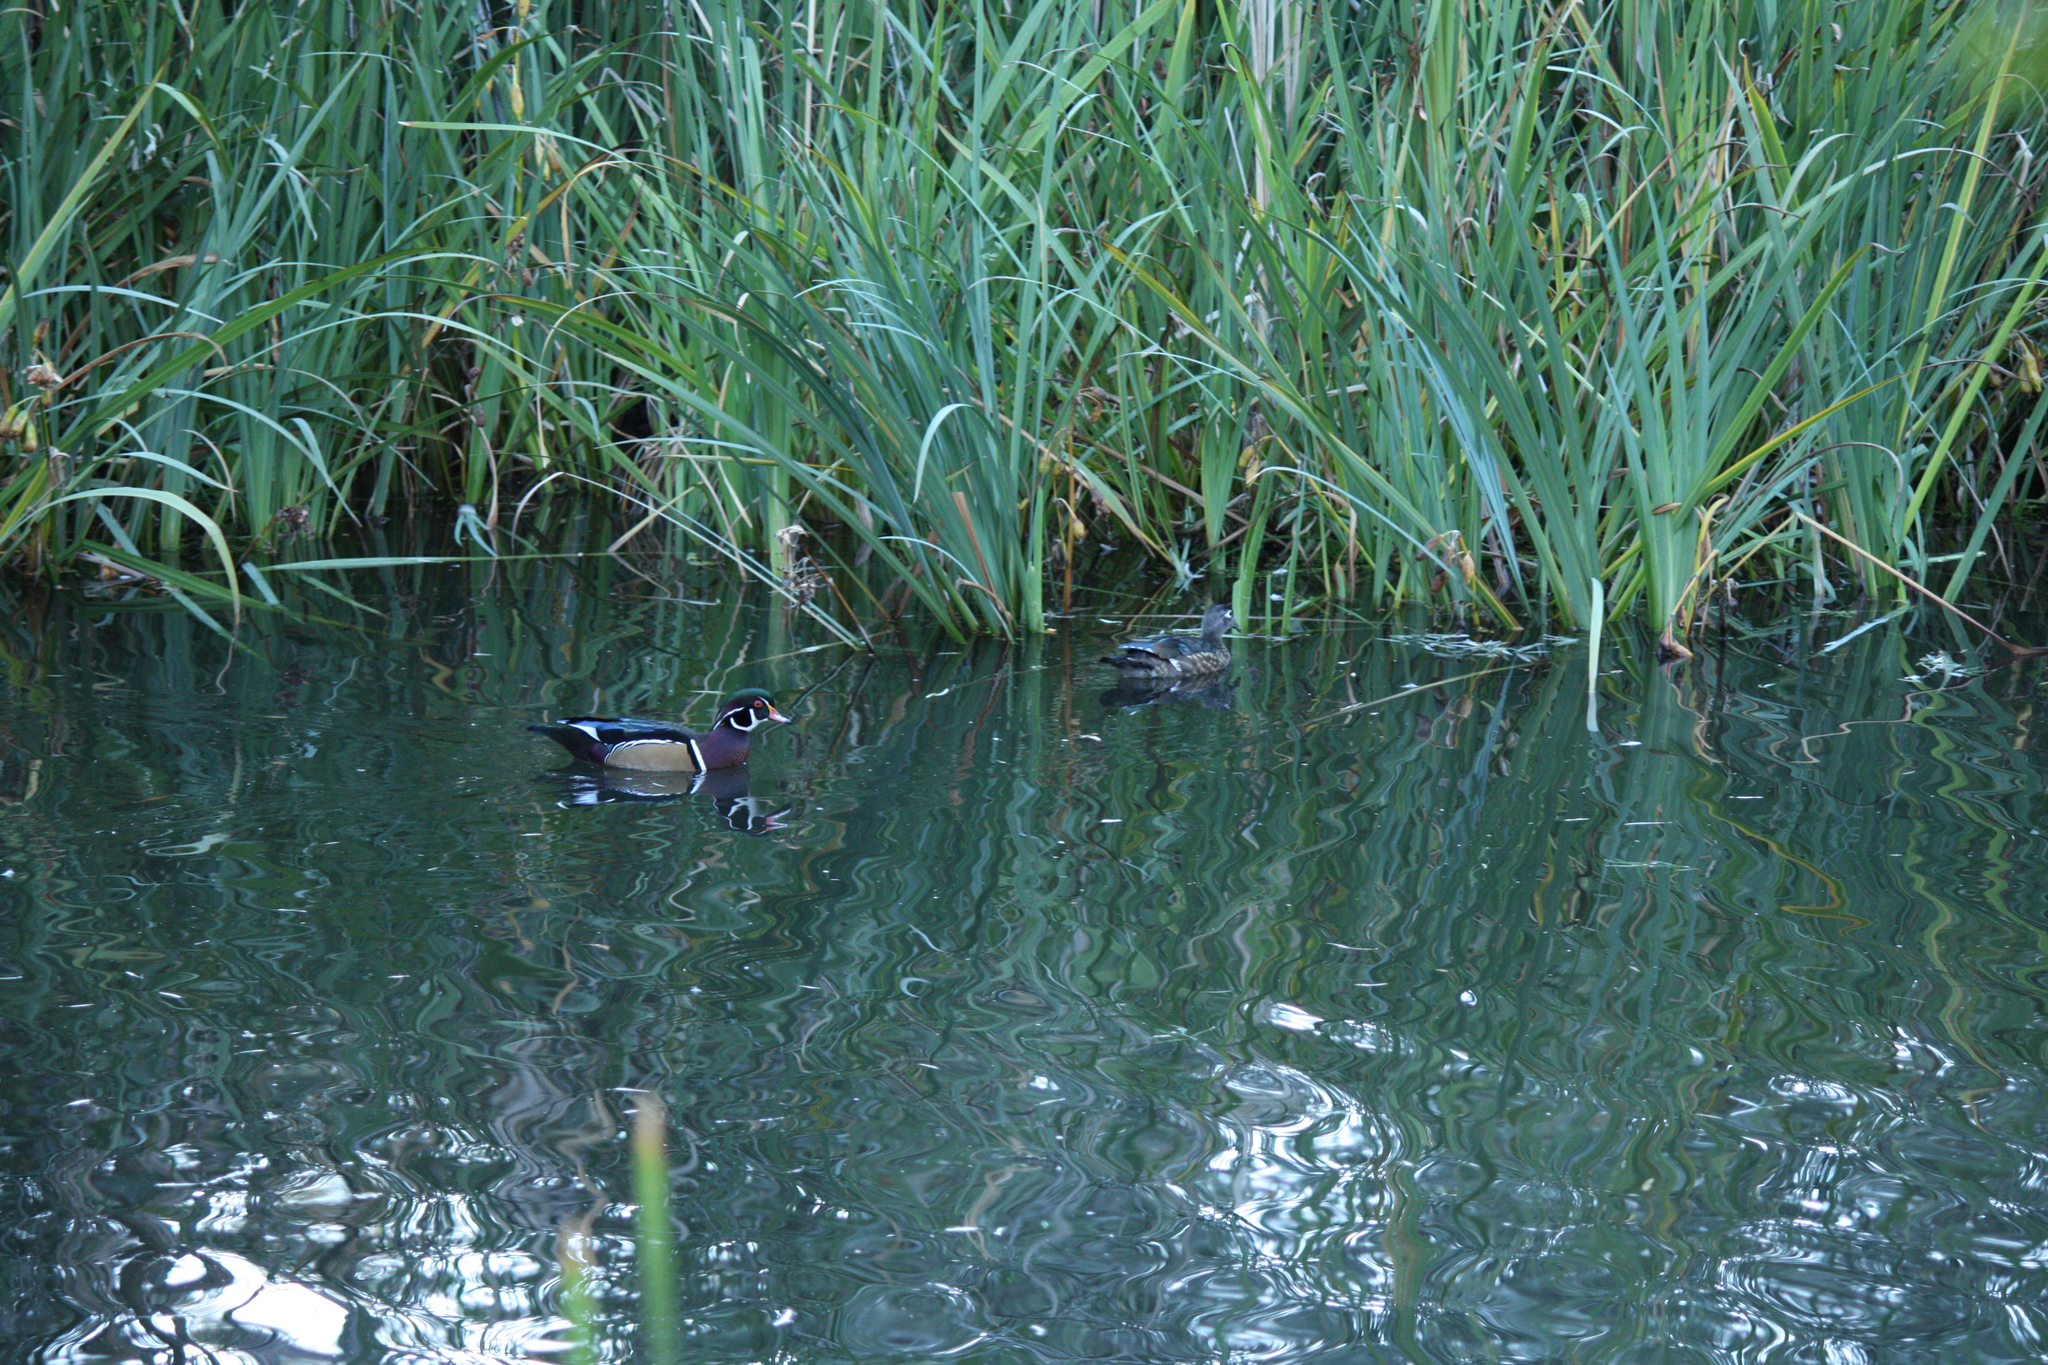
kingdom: Animalia
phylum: Chordata
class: Aves
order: Anseriformes
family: Anatidae
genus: Aix
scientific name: Aix sponsa
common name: Wood duck
